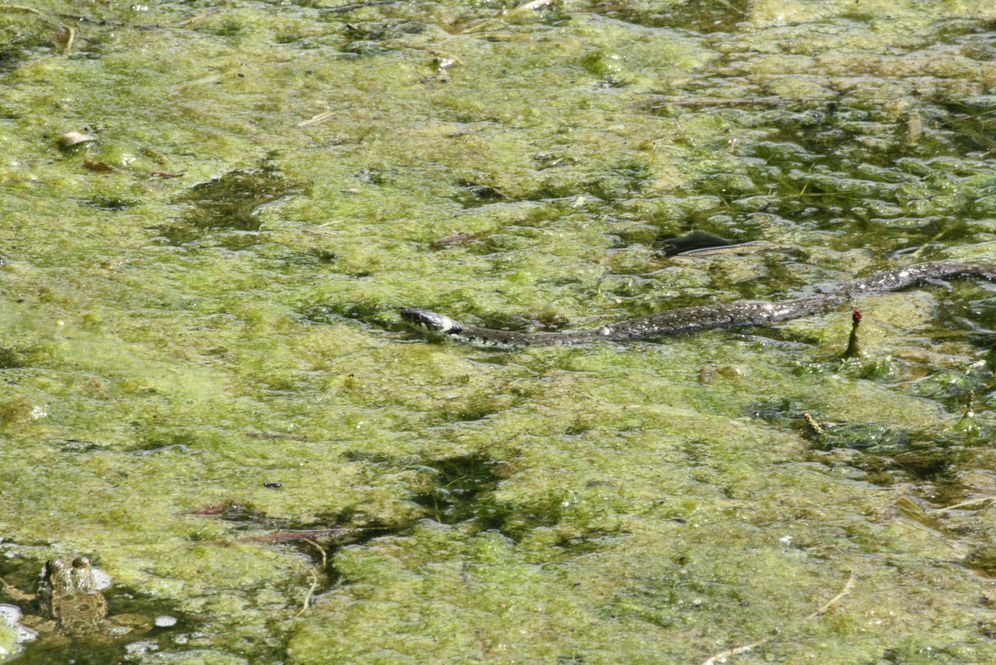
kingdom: Animalia
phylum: Chordata
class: Squamata
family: Colubridae
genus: Natrix
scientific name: Natrix helvetica
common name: Banded grass snake
